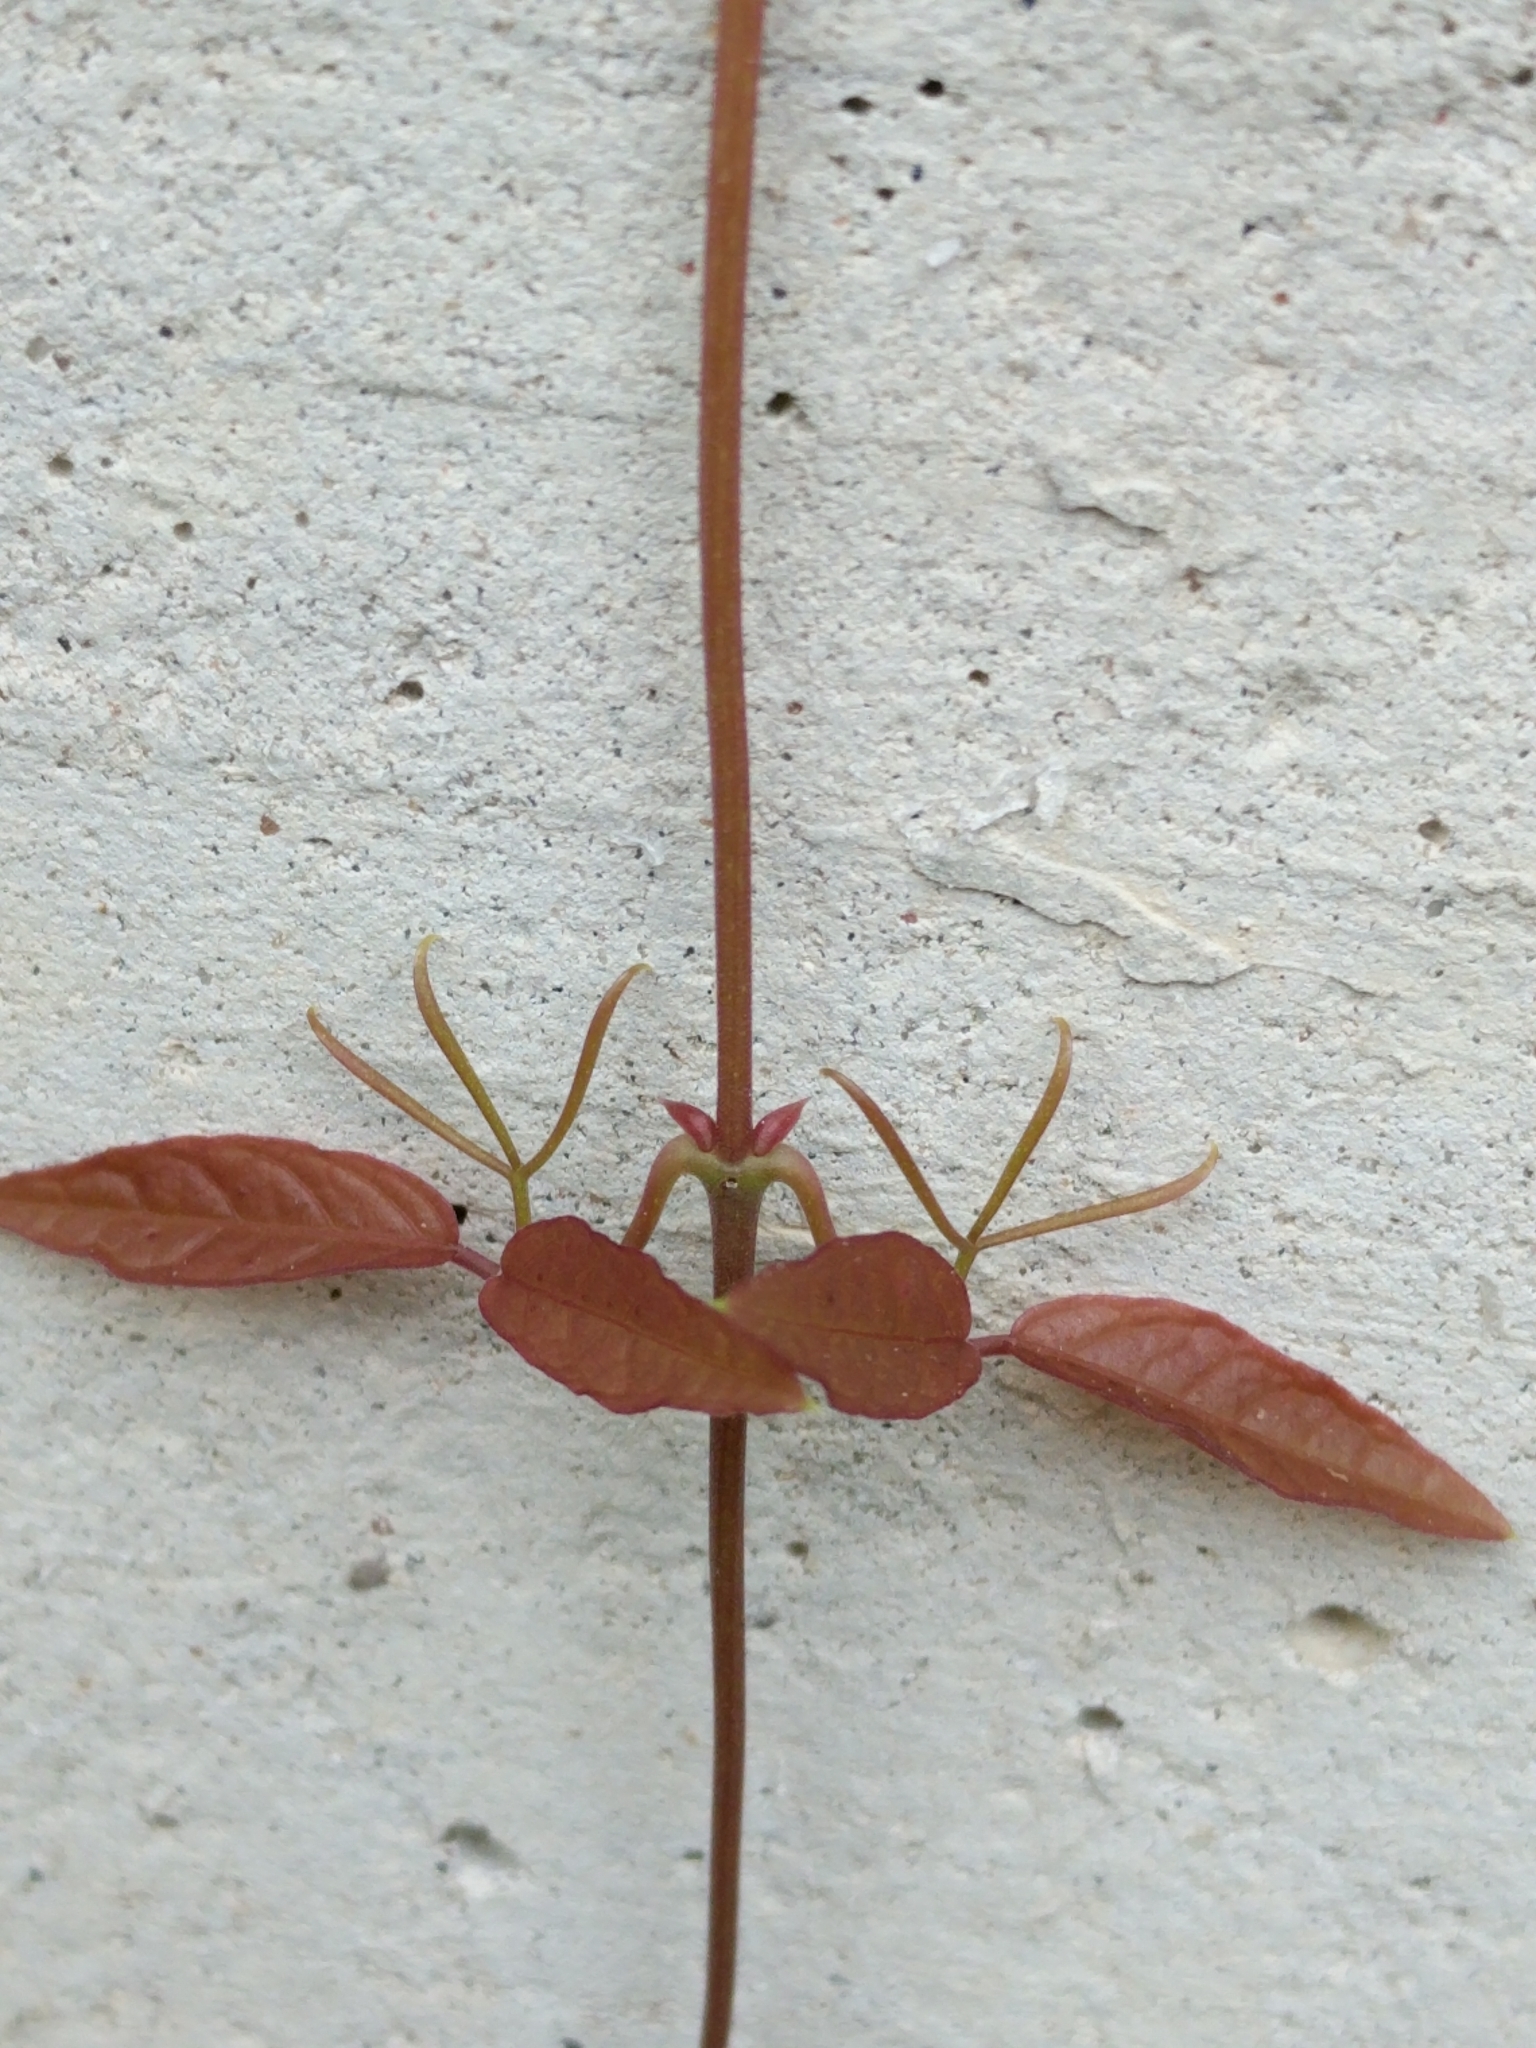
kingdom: Plantae
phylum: Tracheophyta
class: Magnoliopsida
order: Lamiales
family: Bignoniaceae
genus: Dolichandra
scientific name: Dolichandra unguis-cati
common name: Catclaw vine
